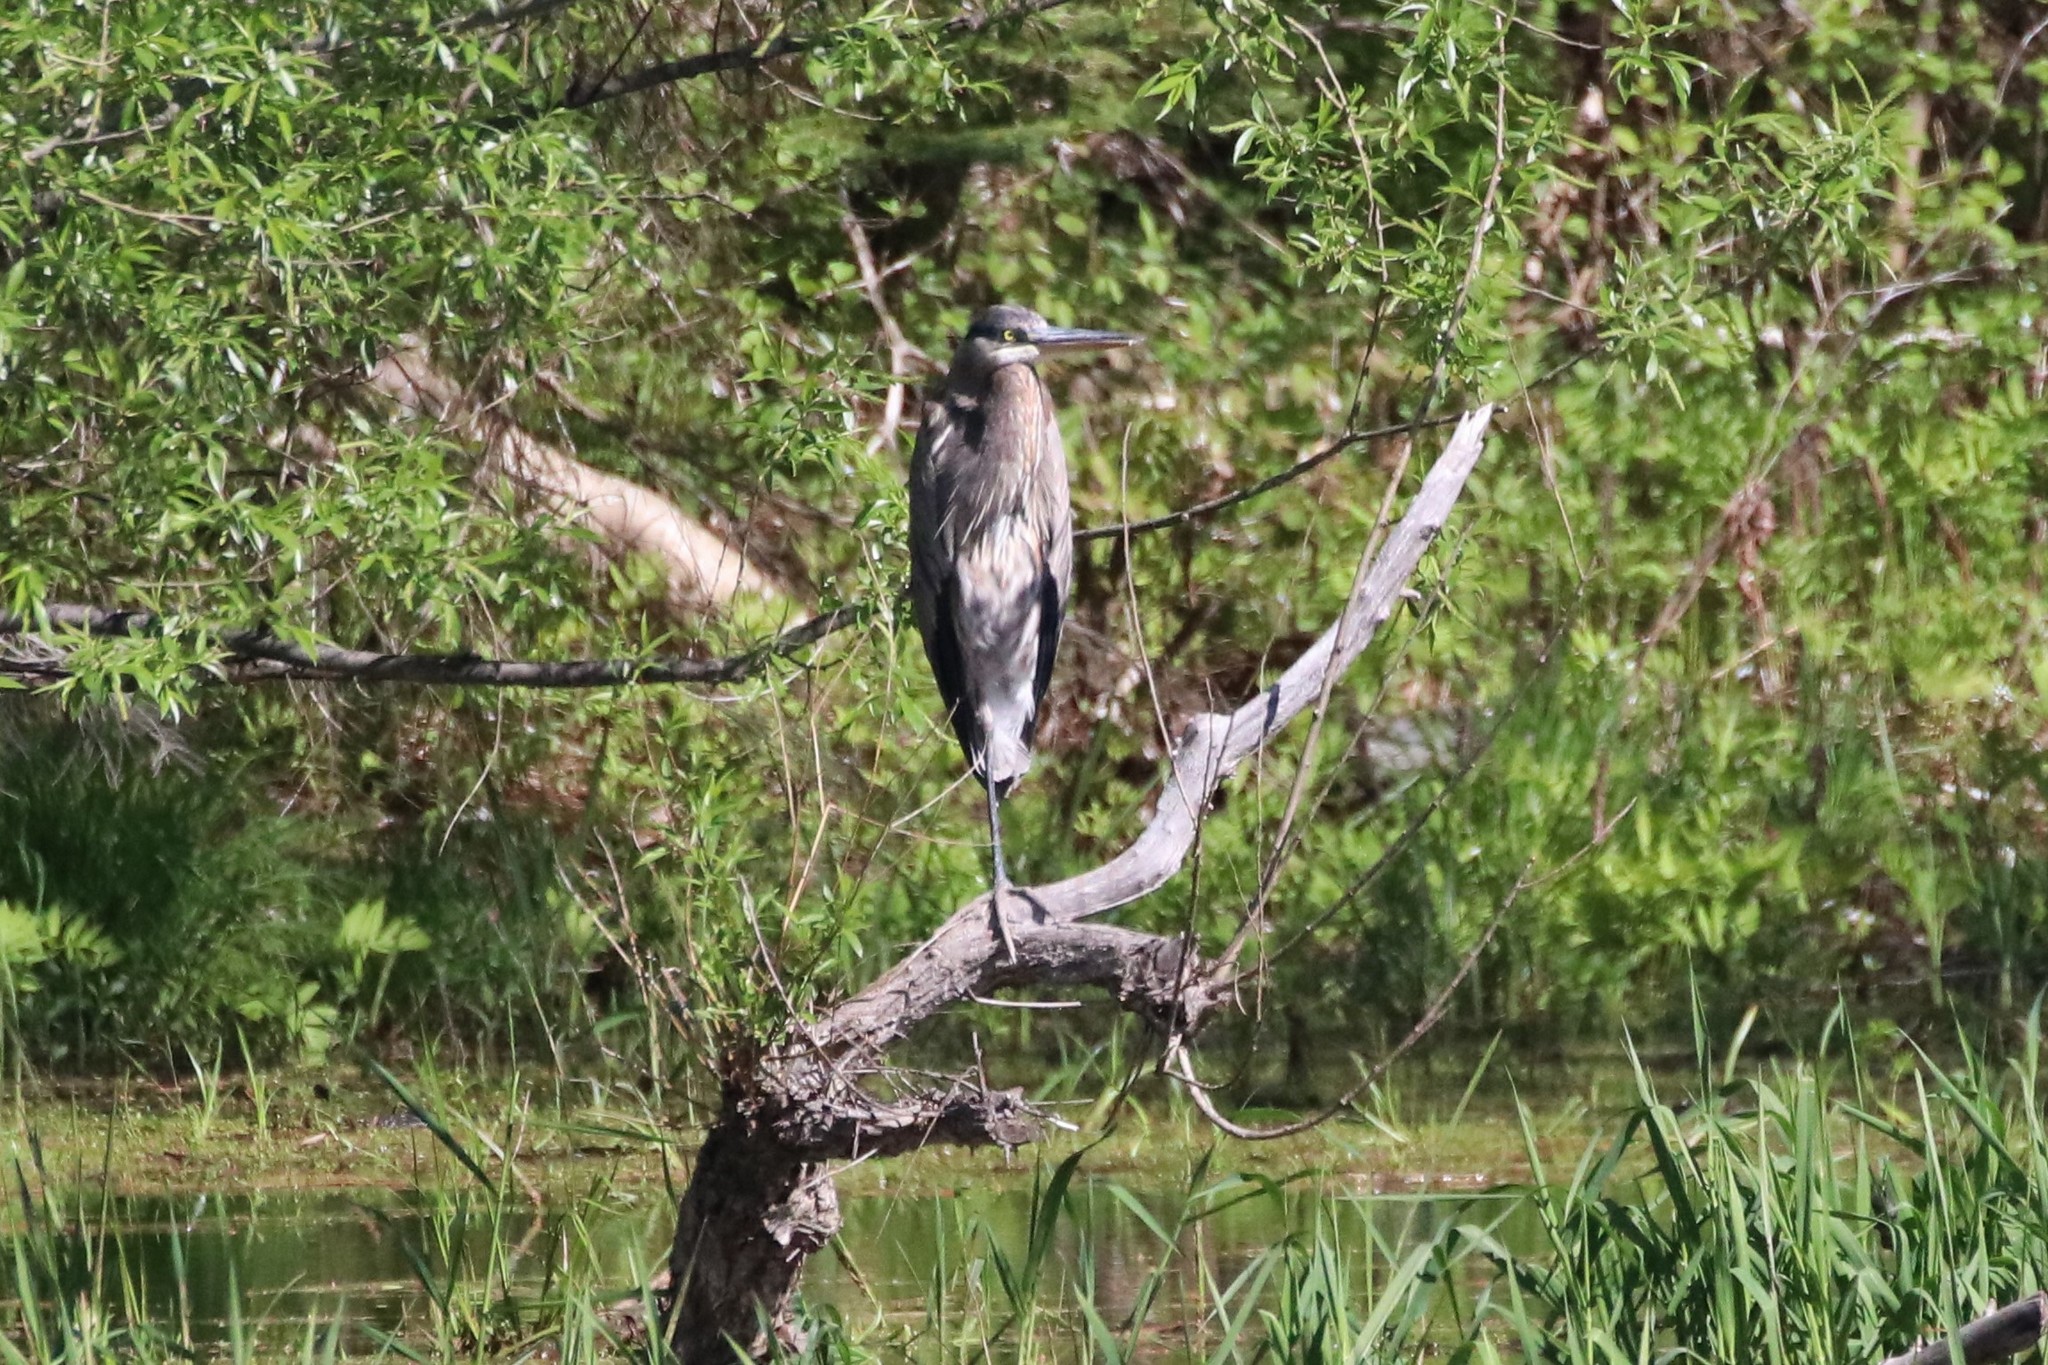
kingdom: Animalia
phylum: Chordata
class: Aves
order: Pelecaniformes
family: Ardeidae
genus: Ardea
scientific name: Ardea herodias
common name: Great blue heron
